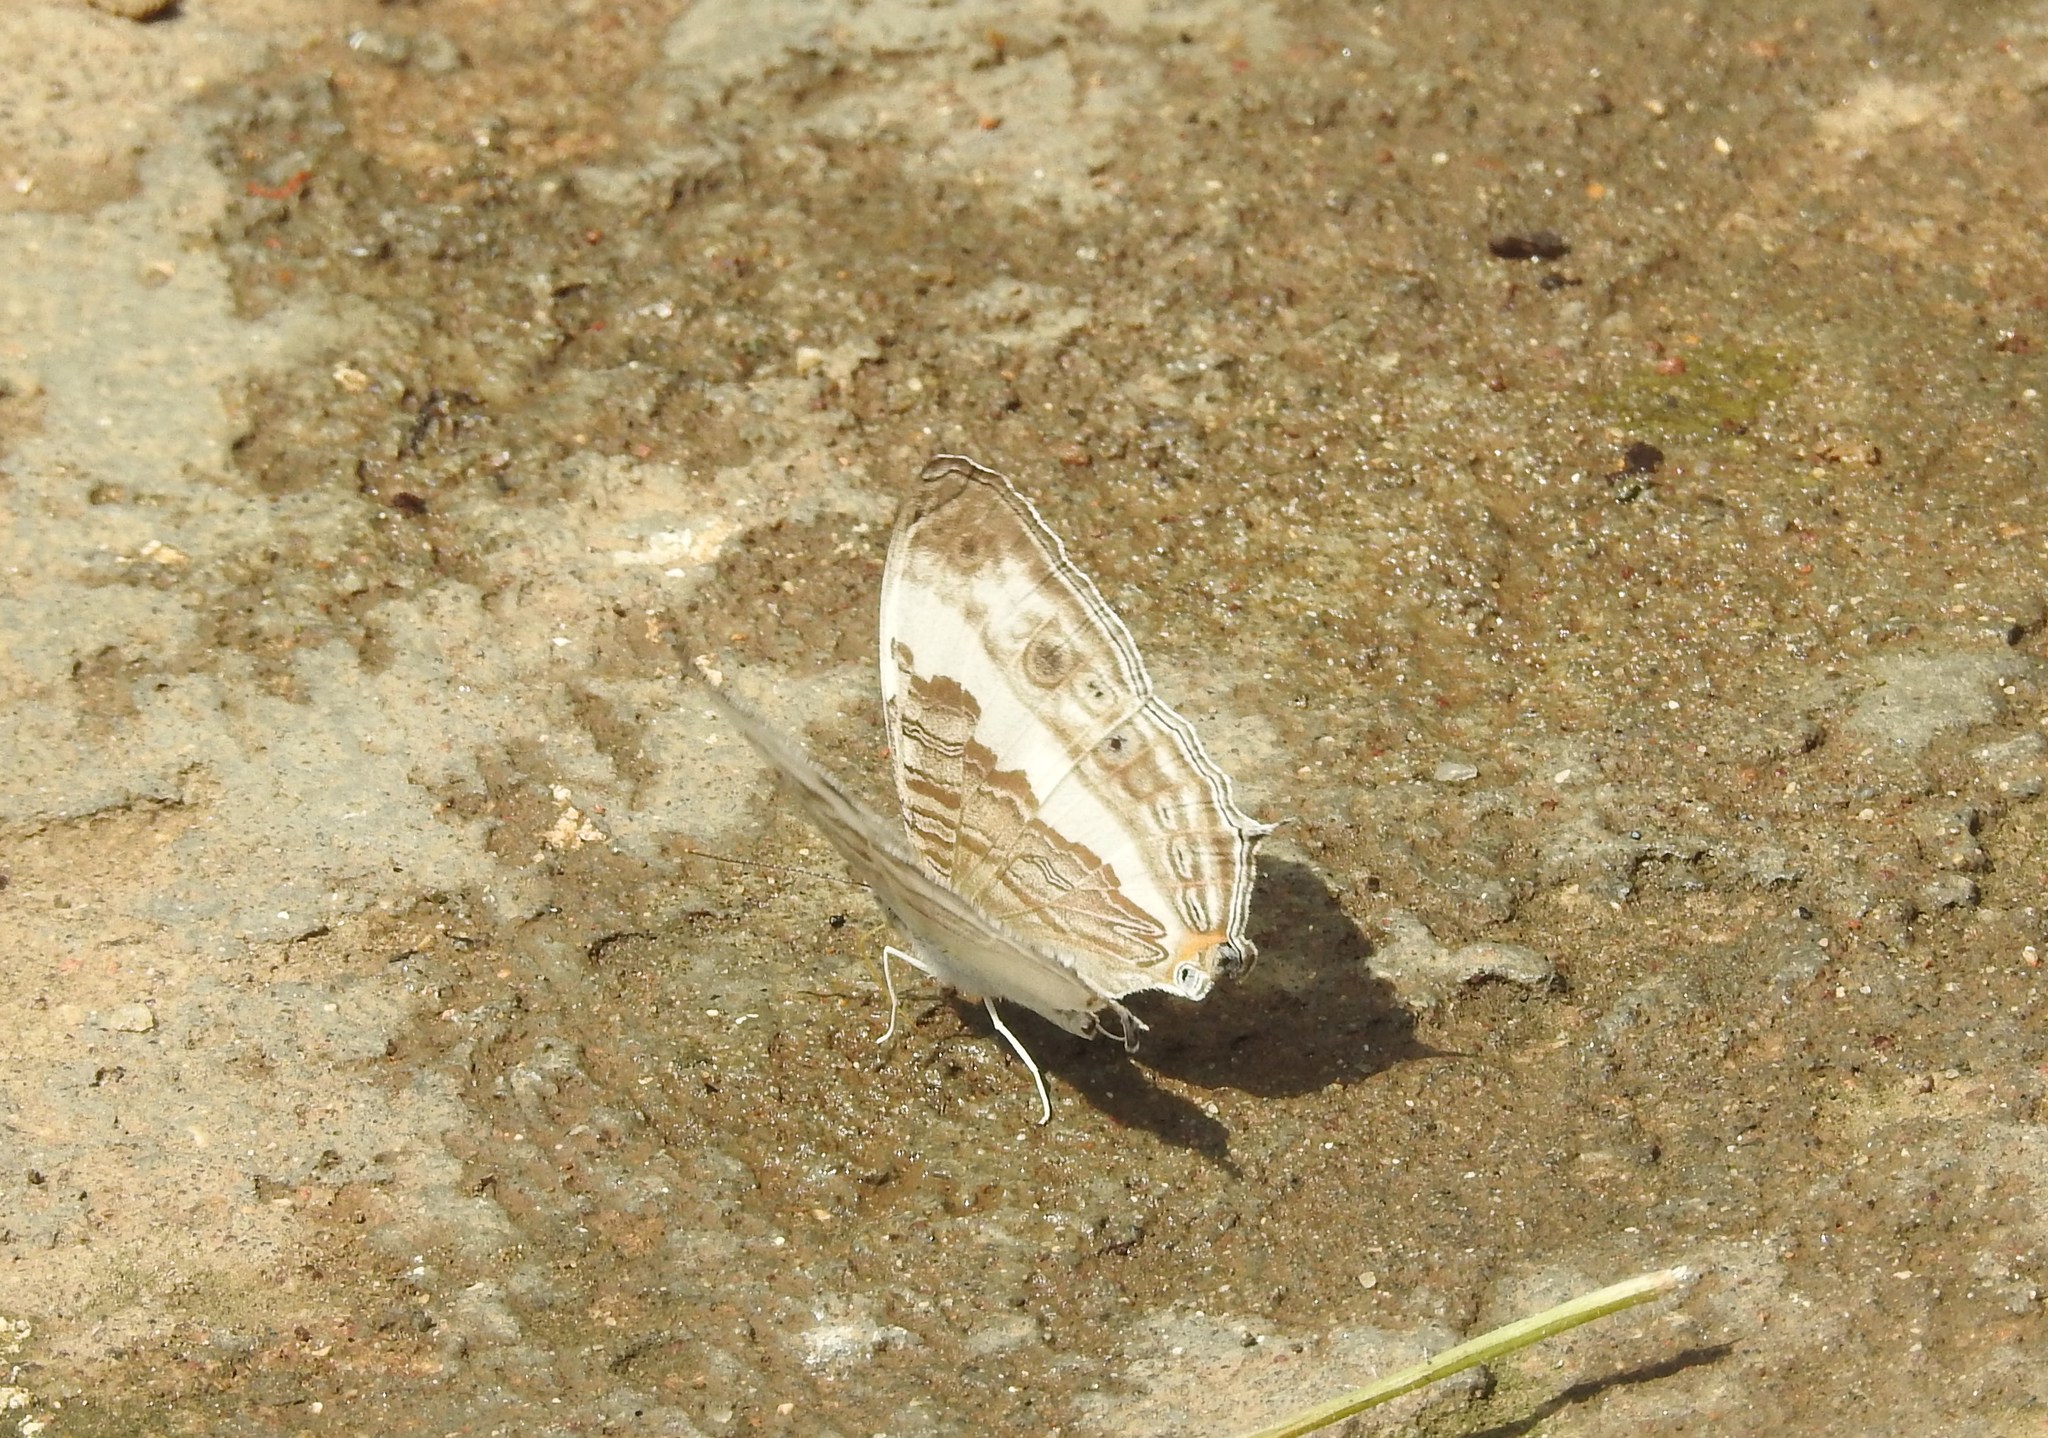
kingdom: Animalia
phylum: Arthropoda
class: Insecta
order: Lepidoptera
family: Nymphalidae
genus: Cyrestis
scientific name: Cyrestis cocles
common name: Marbled map
